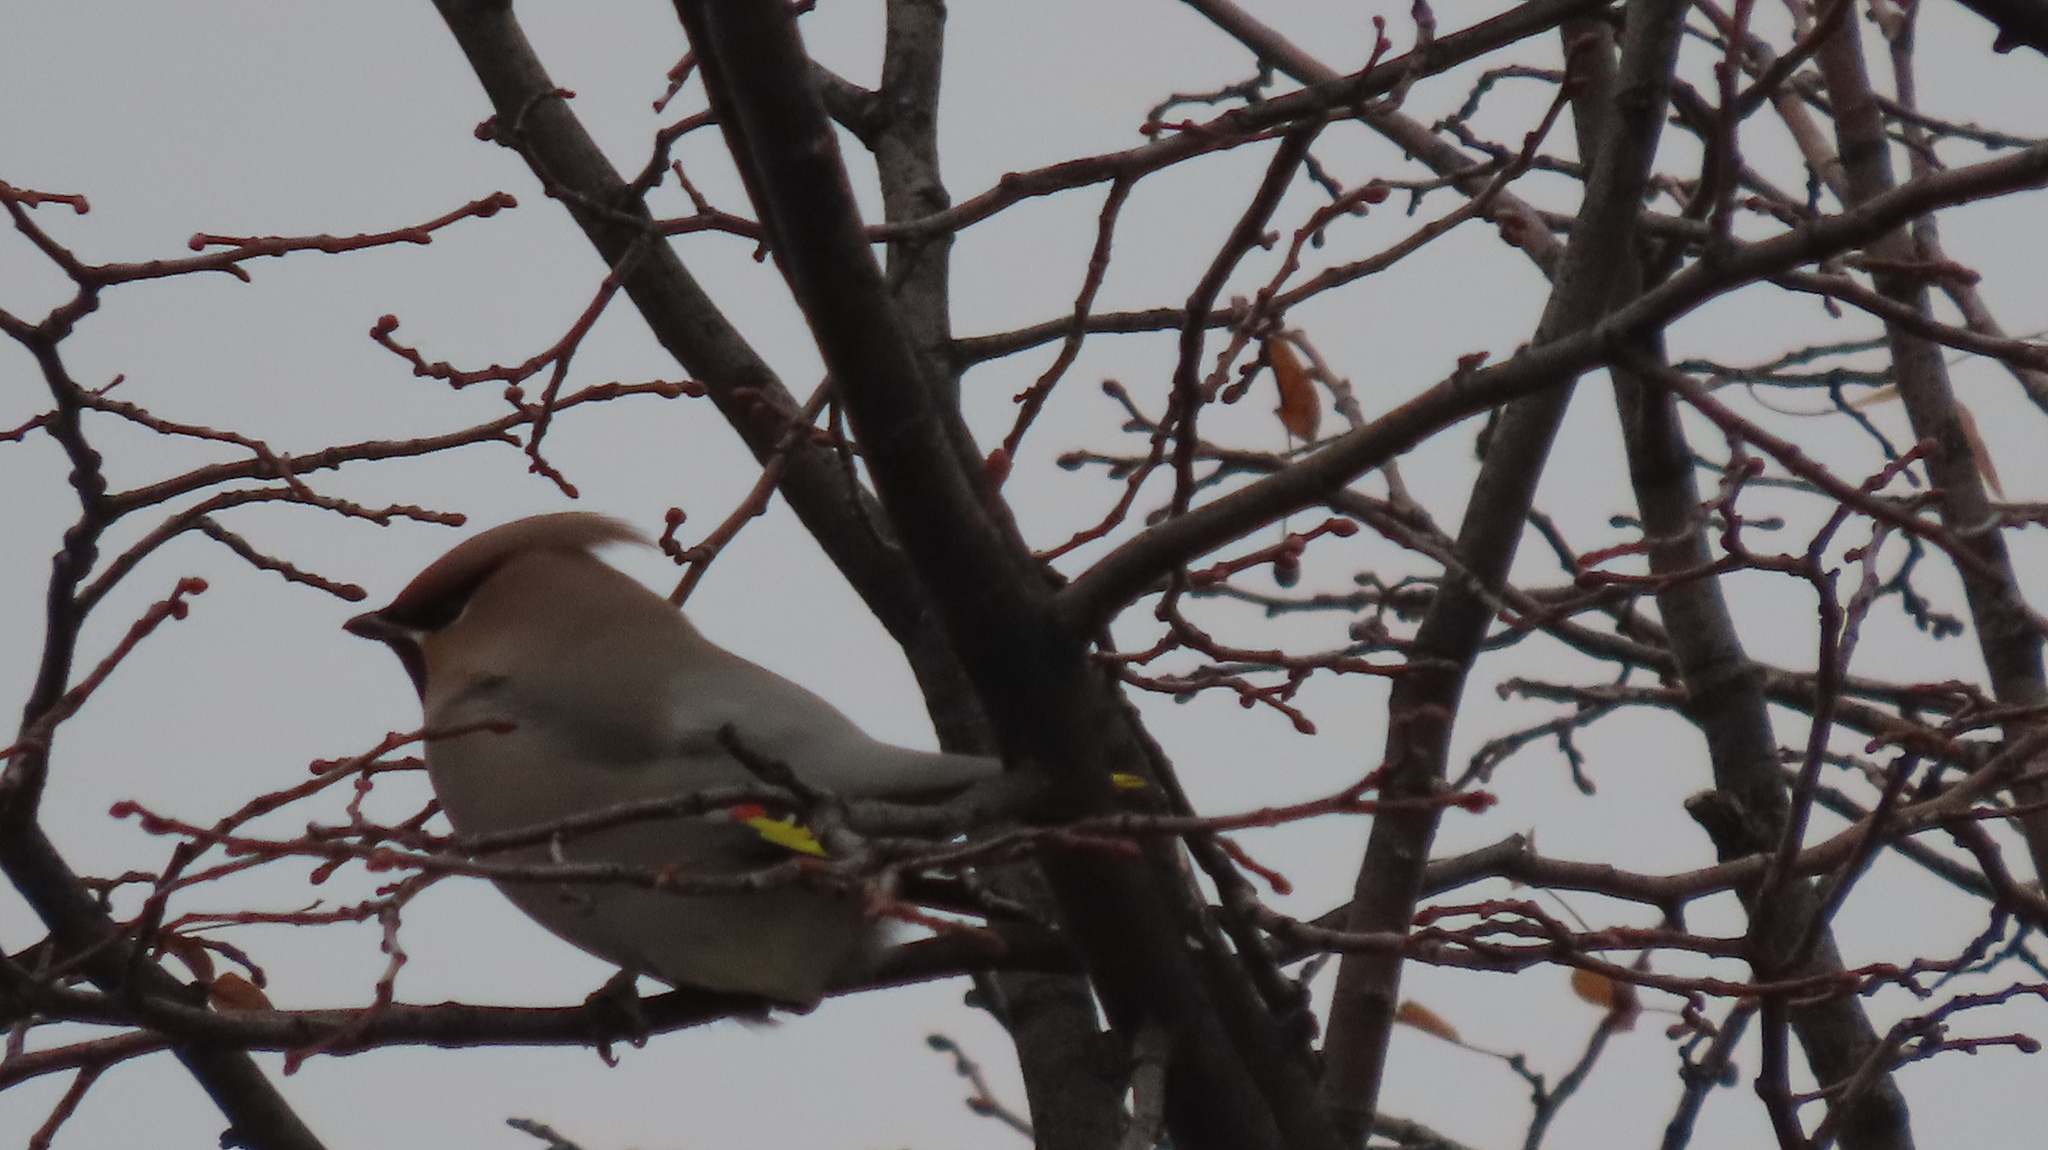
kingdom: Animalia
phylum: Chordata
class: Aves
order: Passeriformes
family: Bombycillidae
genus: Bombycilla
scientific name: Bombycilla garrulus
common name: Bohemian waxwing
